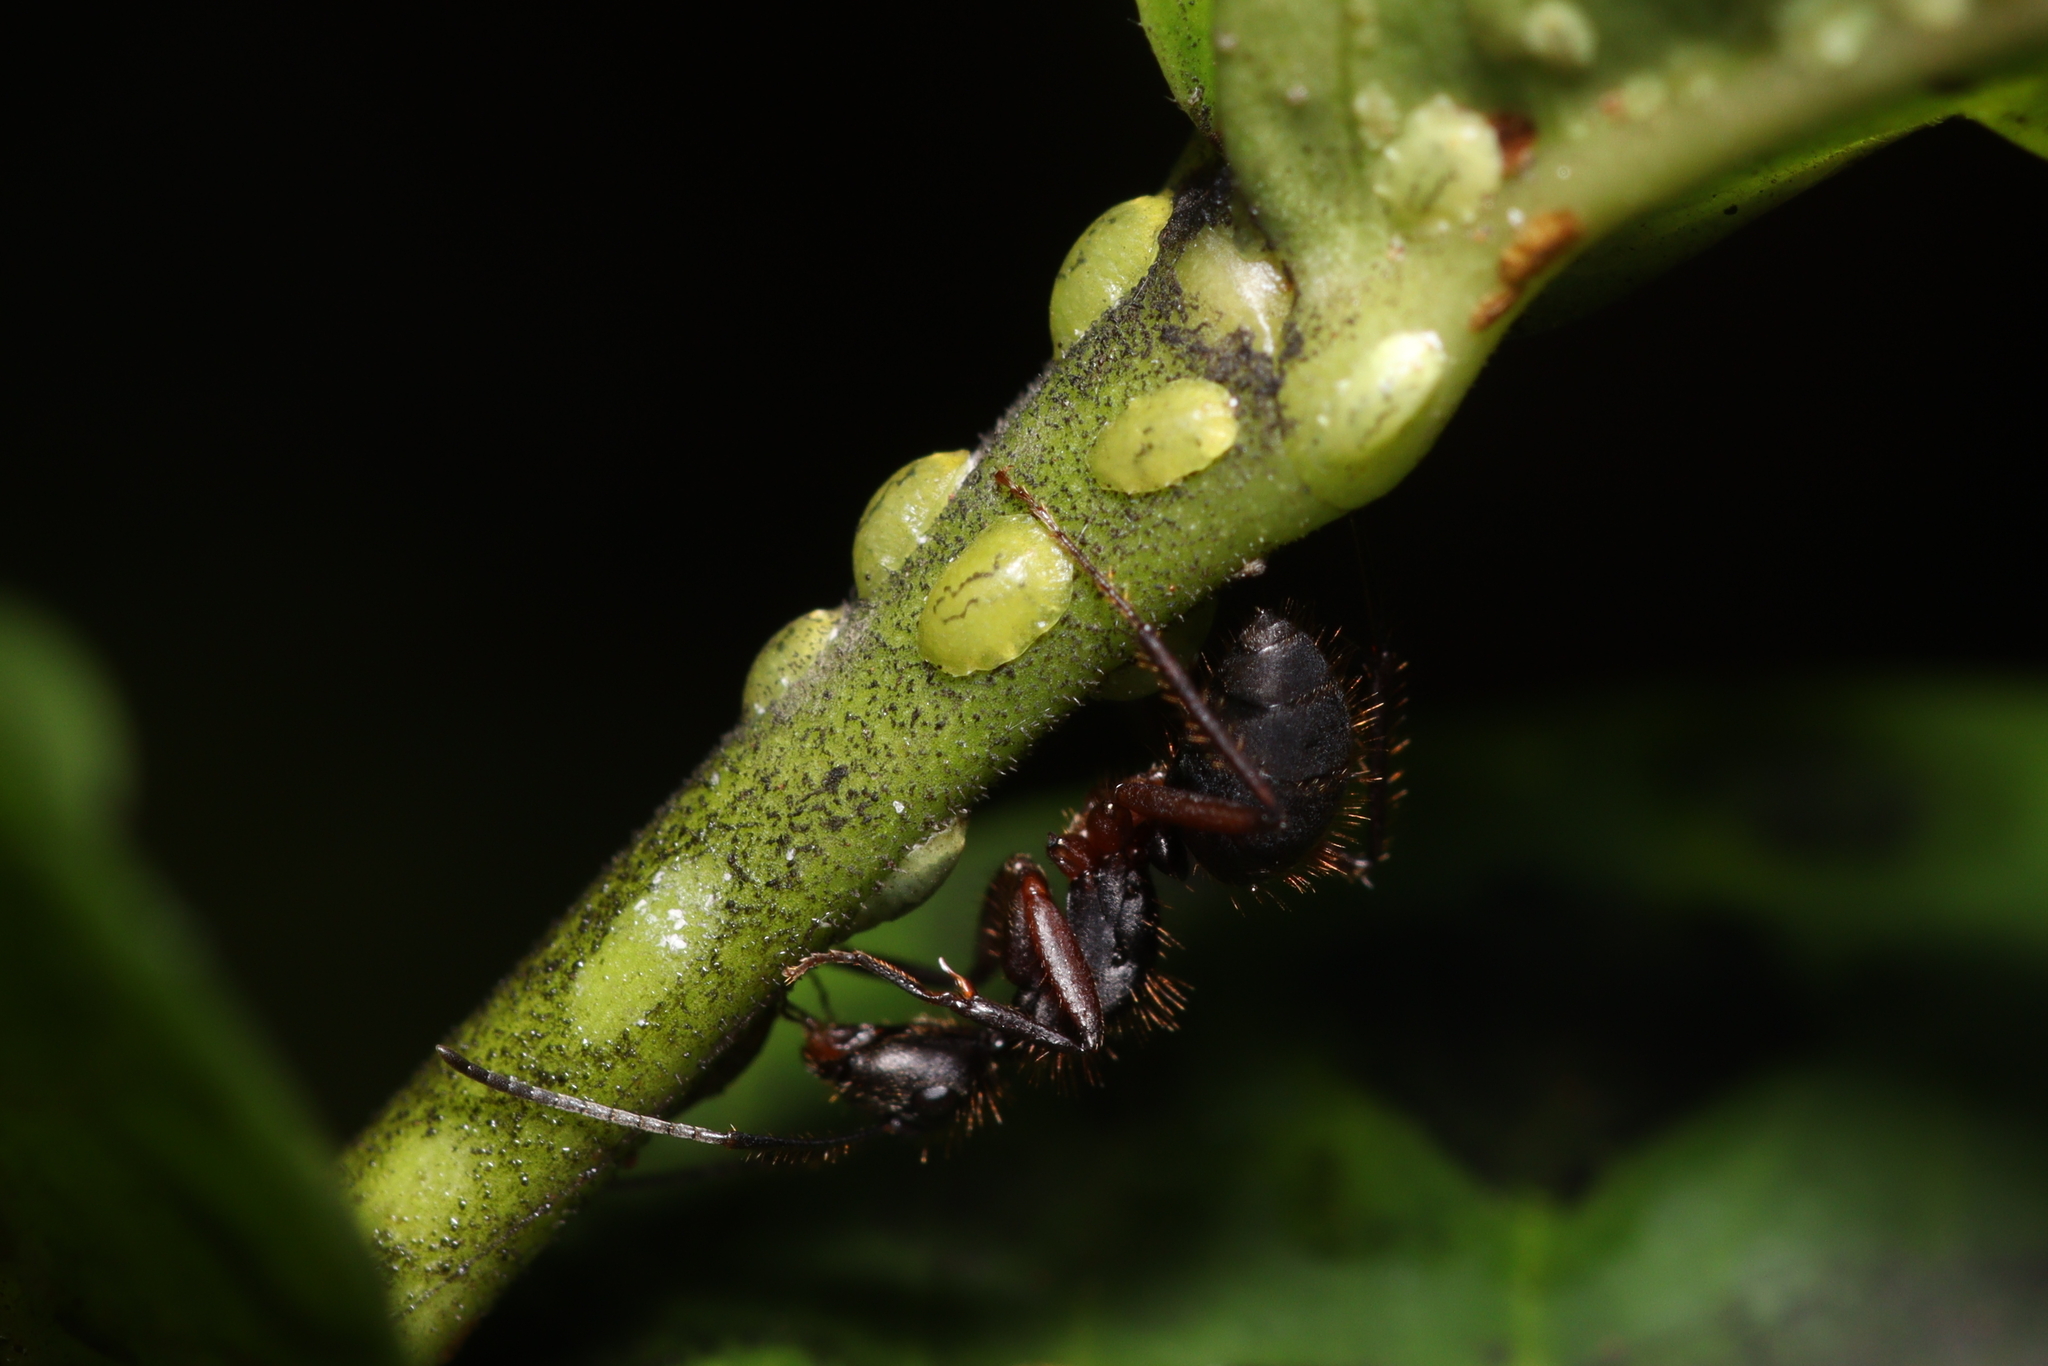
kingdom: Animalia
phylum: Arthropoda
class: Insecta
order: Hymenoptera
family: Formicidae
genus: Camponotus
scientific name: Camponotus rufipes
